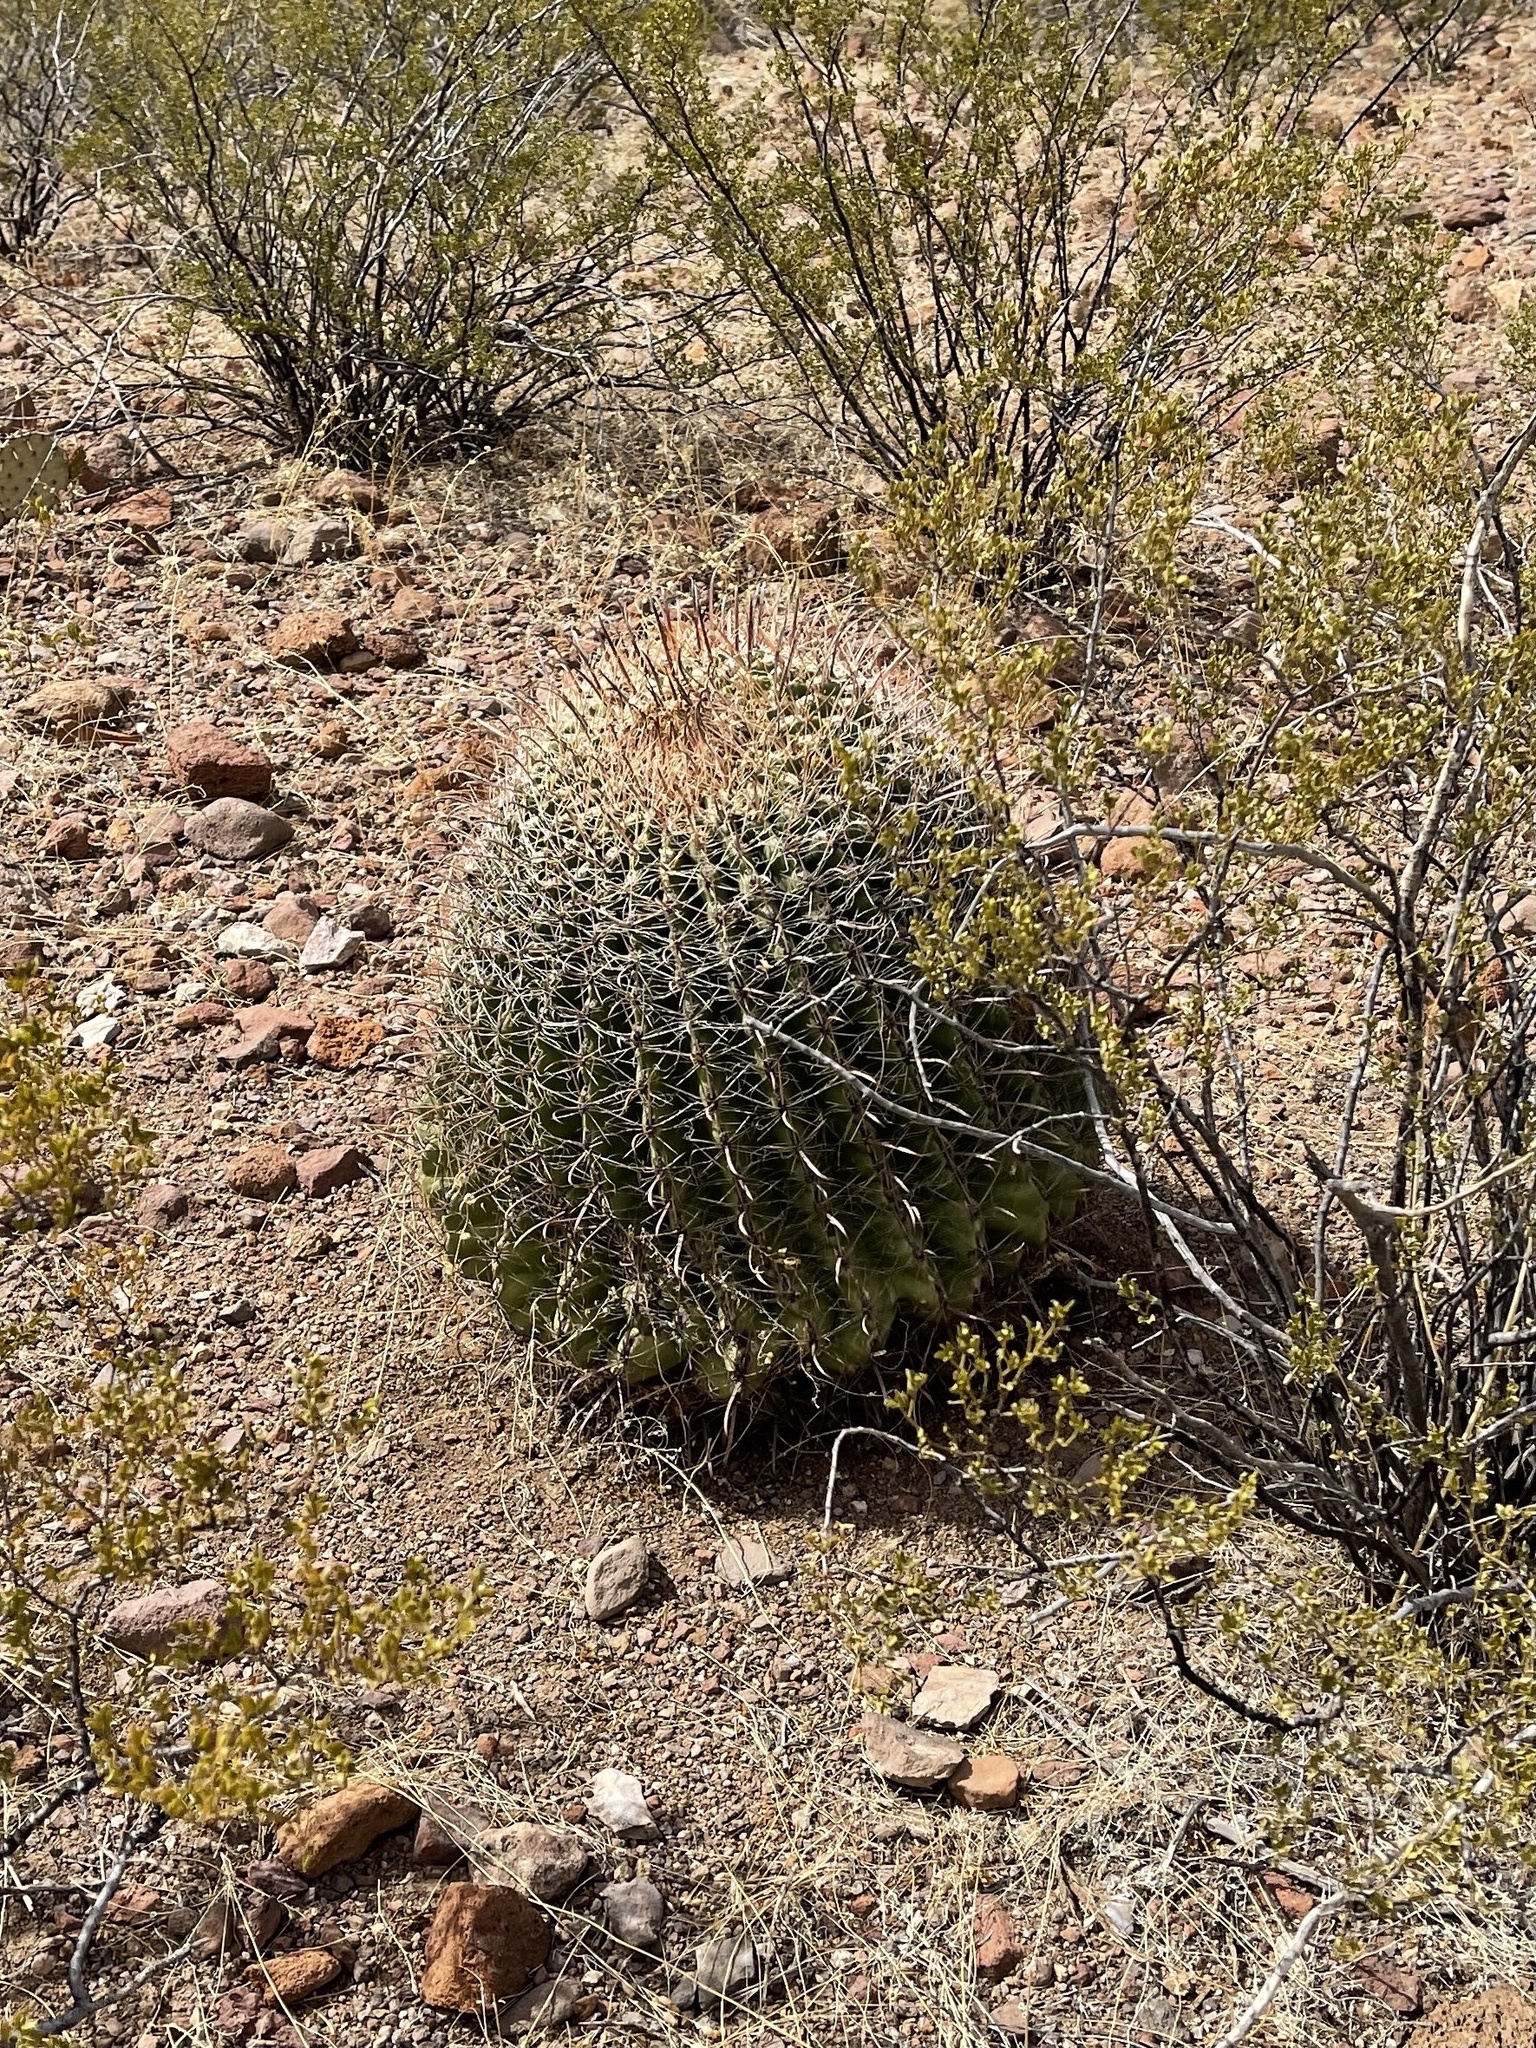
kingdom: Plantae
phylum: Tracheophyta
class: Magnoliopsida
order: Caryophyllales
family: Cactaceae
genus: Ferocactus
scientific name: Ferocactus wislizeni
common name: Candy barrel cactus
